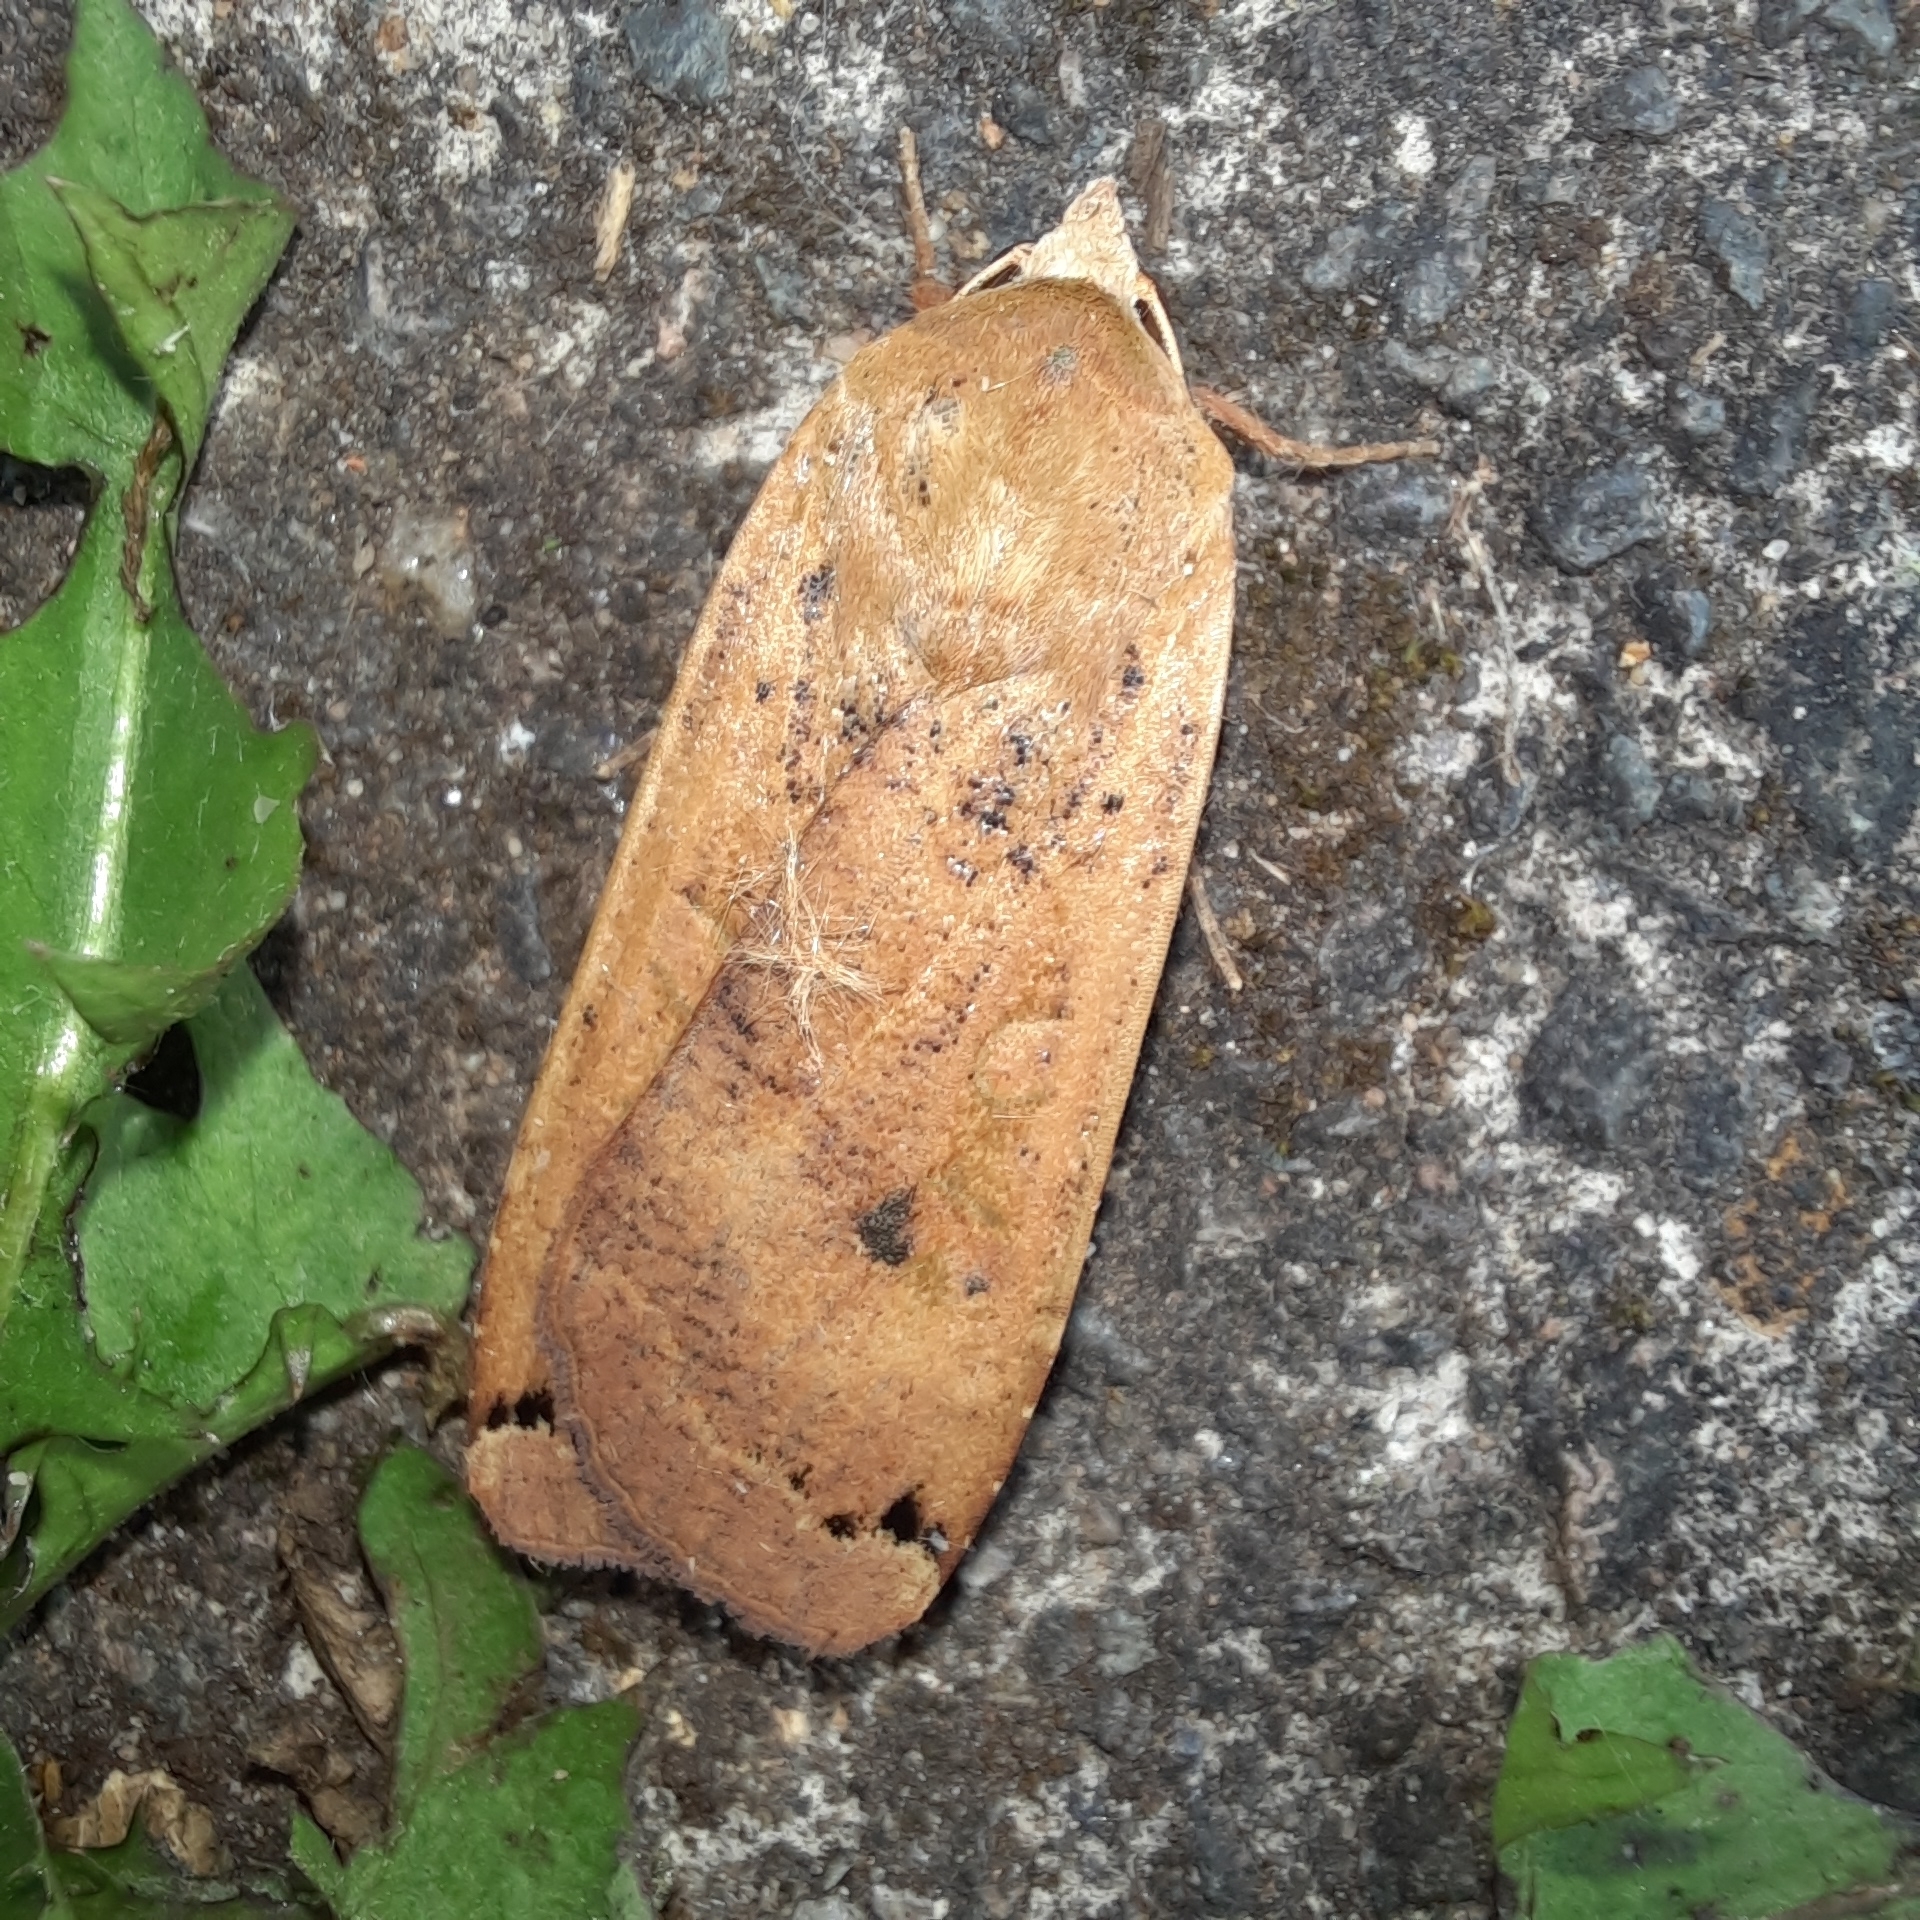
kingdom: Animalia
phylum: Arthropoda
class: Insecta
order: Lepidoptera
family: Noctuidae
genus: Noctua
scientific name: Noctua pronuba
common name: Large yellow underwing
